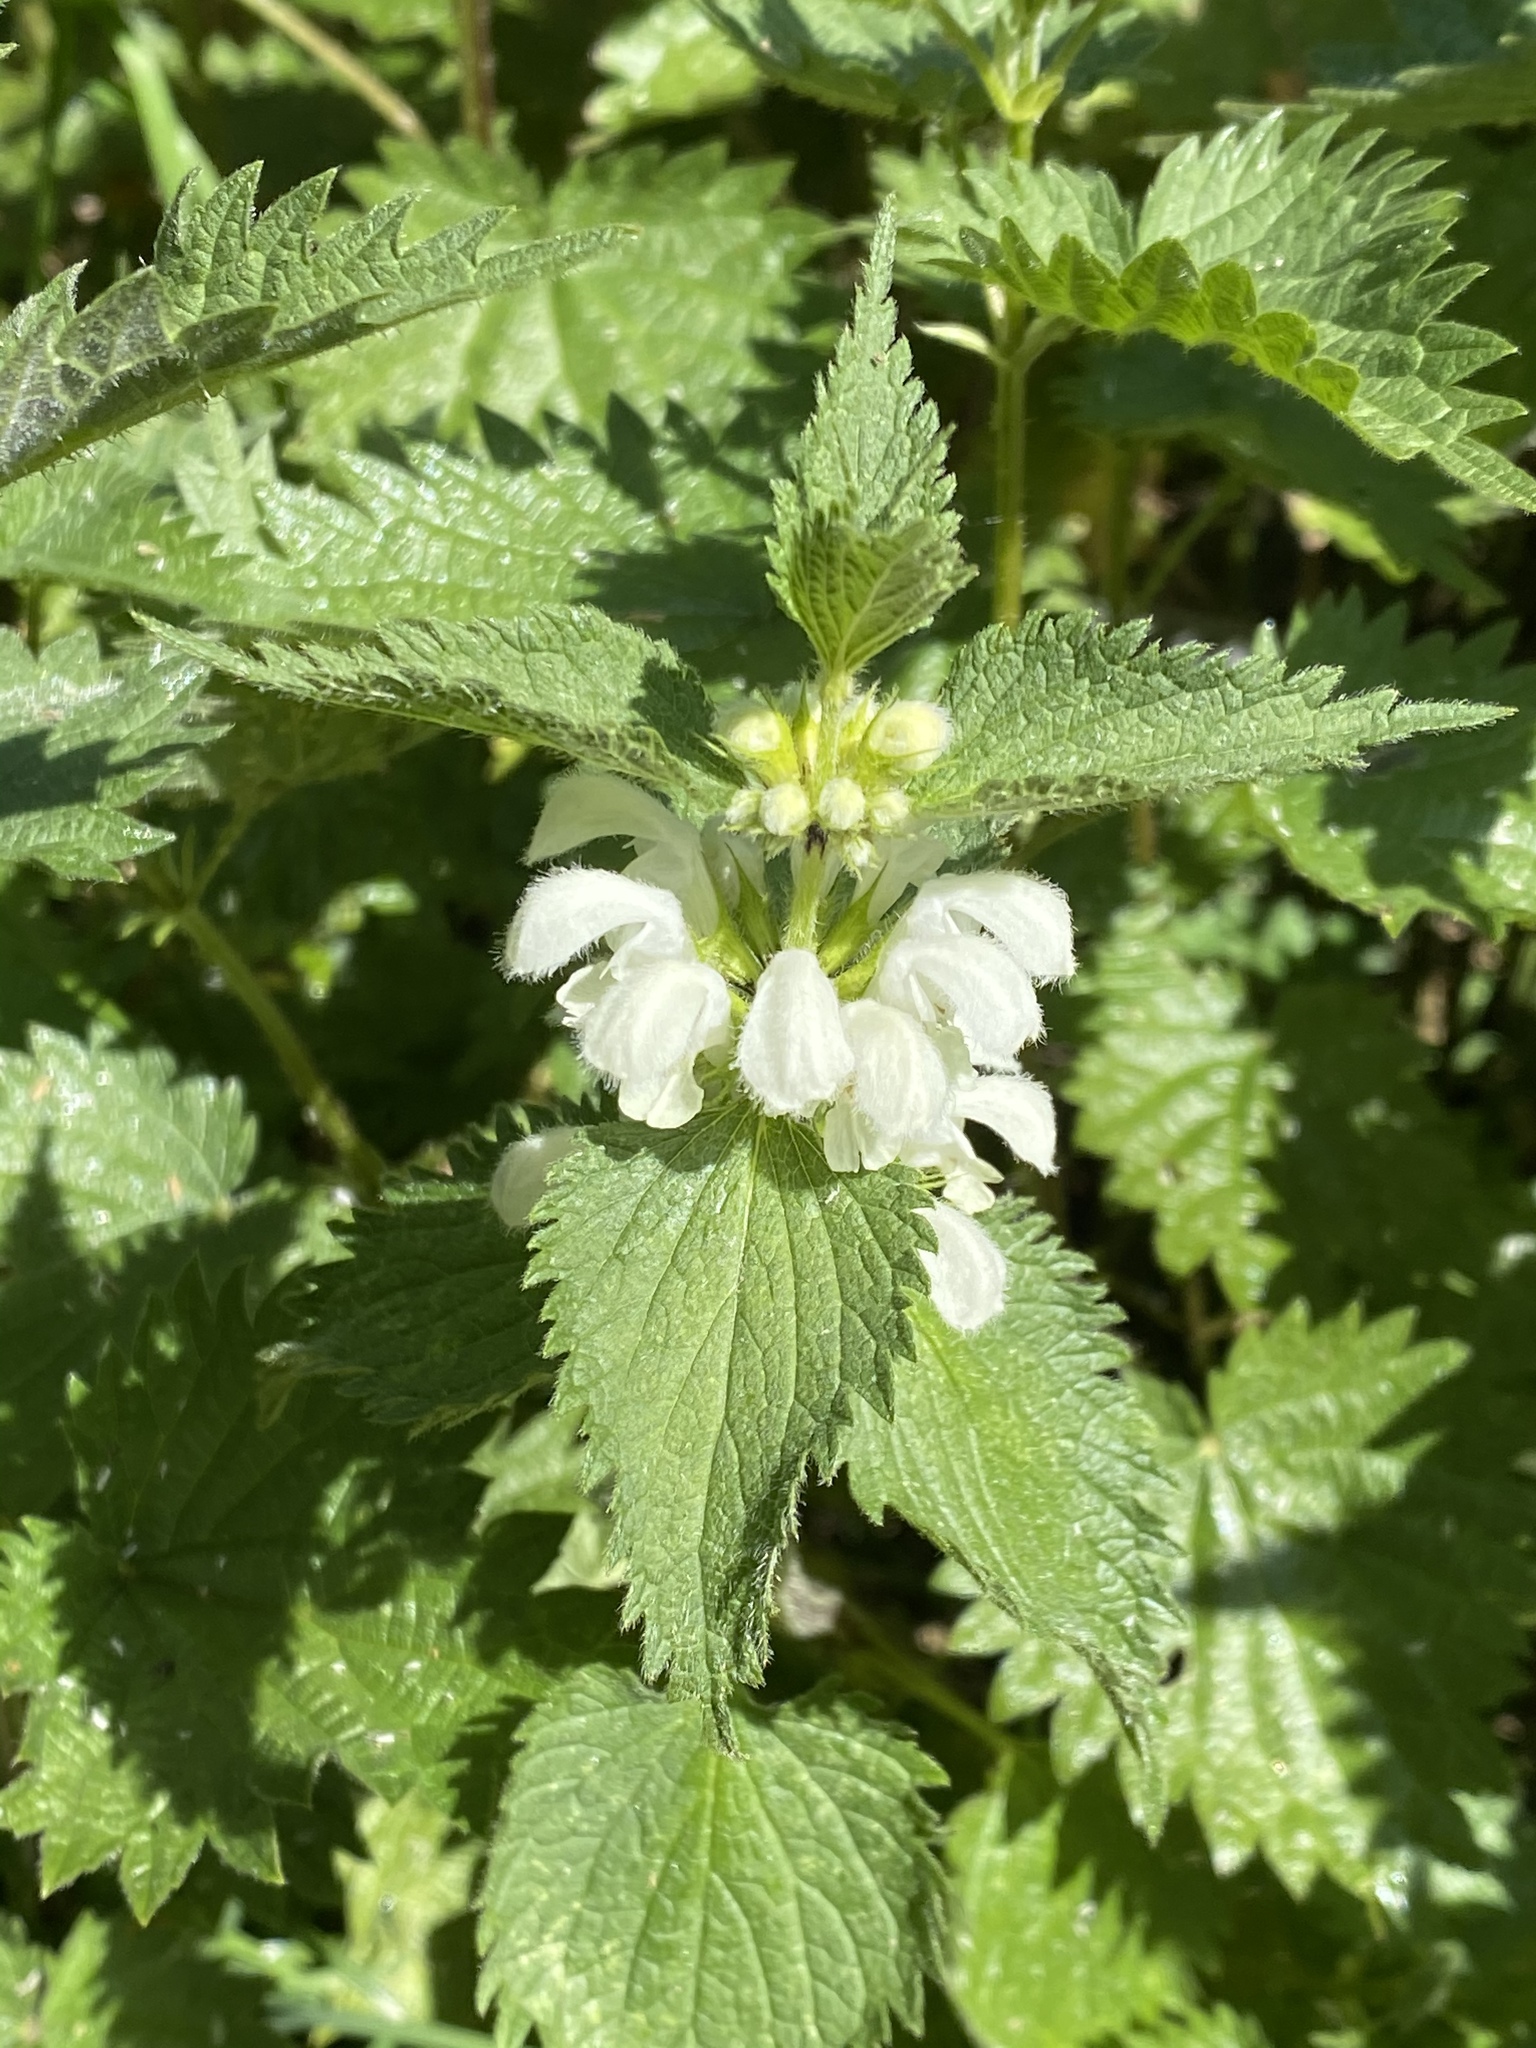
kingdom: Plantae
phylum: Tracheophyta
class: Magnoliopsida
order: Lamiales
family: Lamiaceae
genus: Lamium
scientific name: Lamium album
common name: White dead-nettle
